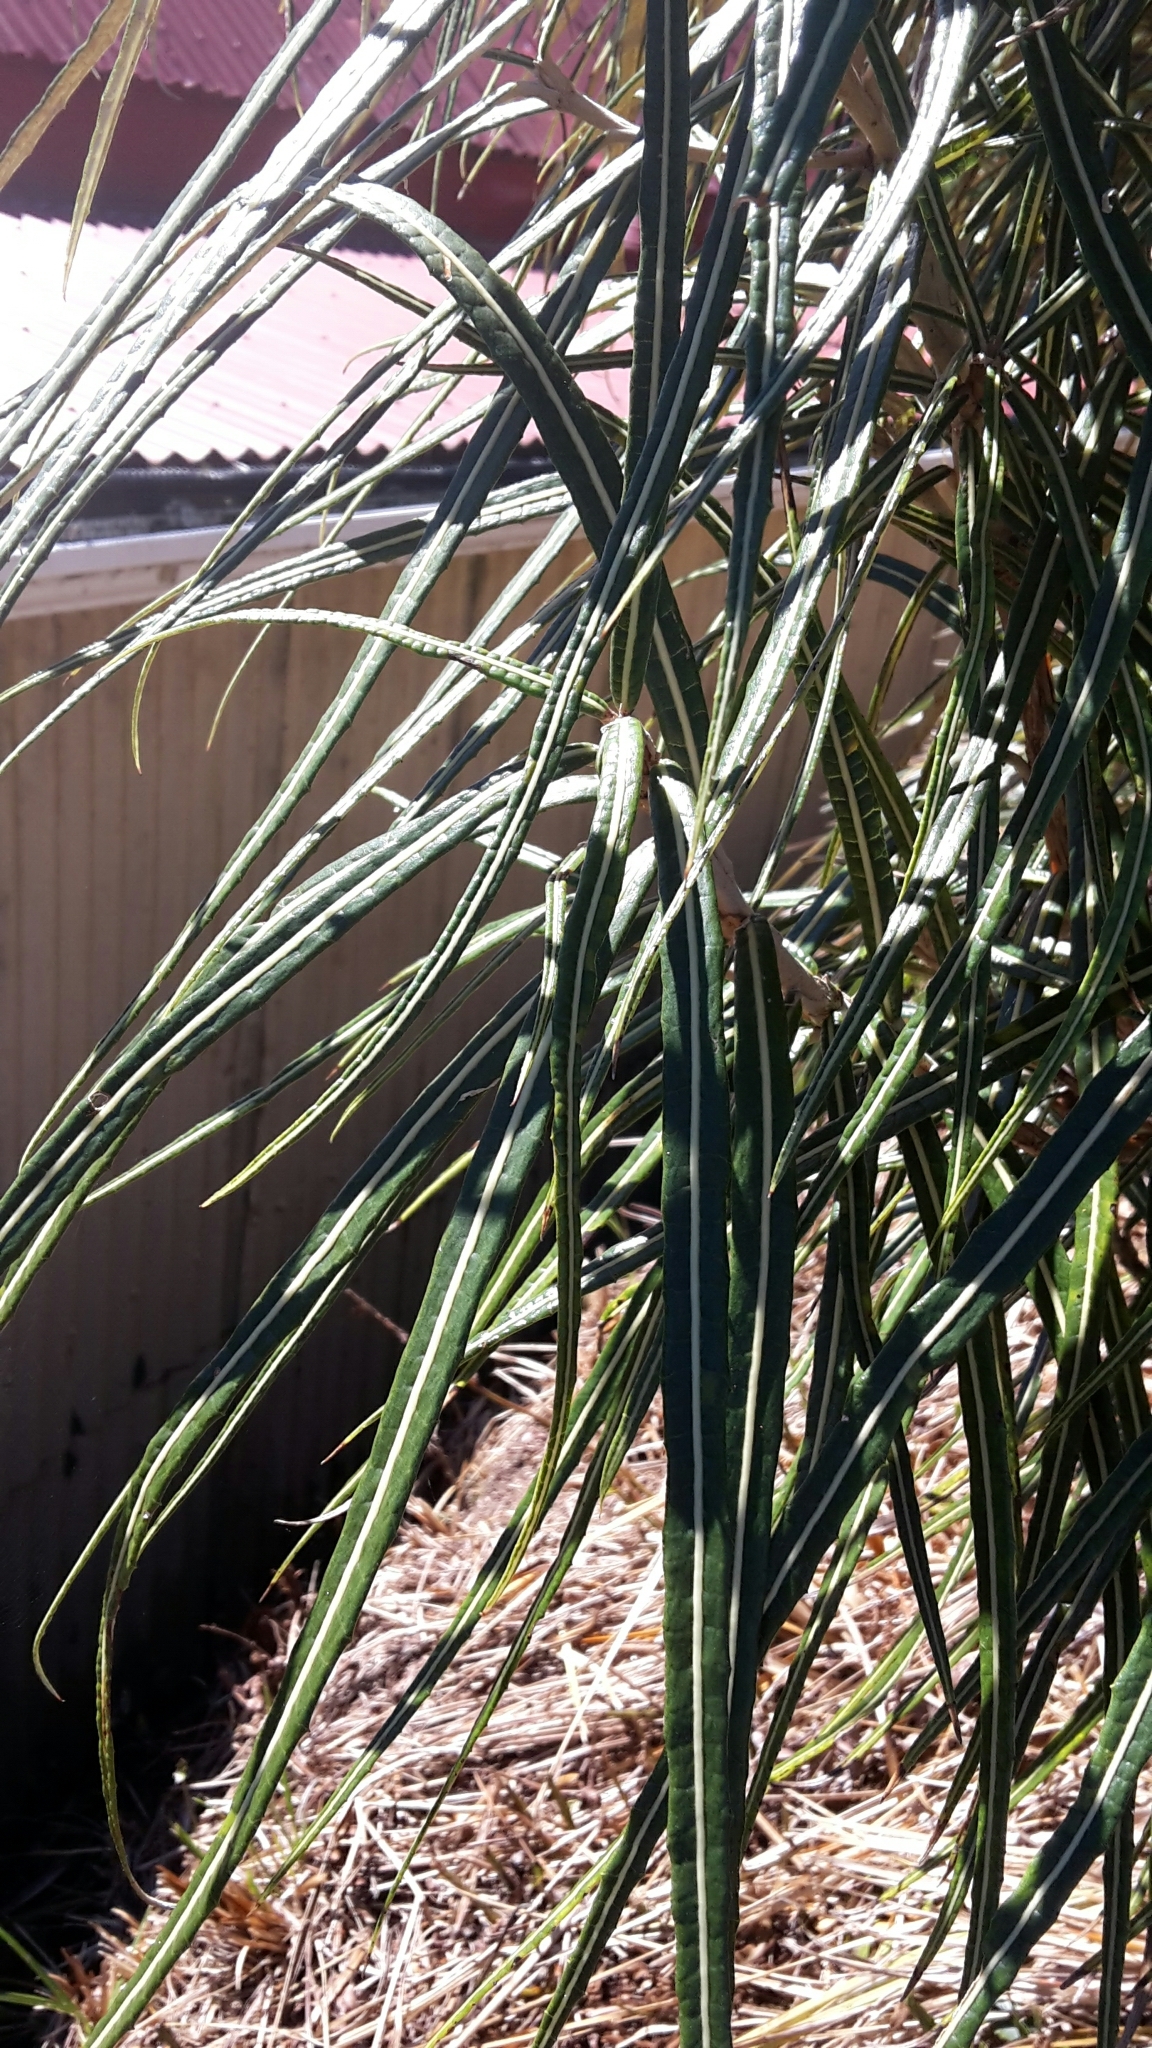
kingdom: Plantae
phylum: Tracheophyta
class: Magnoliopsida
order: Asterales
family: Asteraceae
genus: Olearia
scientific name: Olearia lacunosa
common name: Lancewood tree daisy
